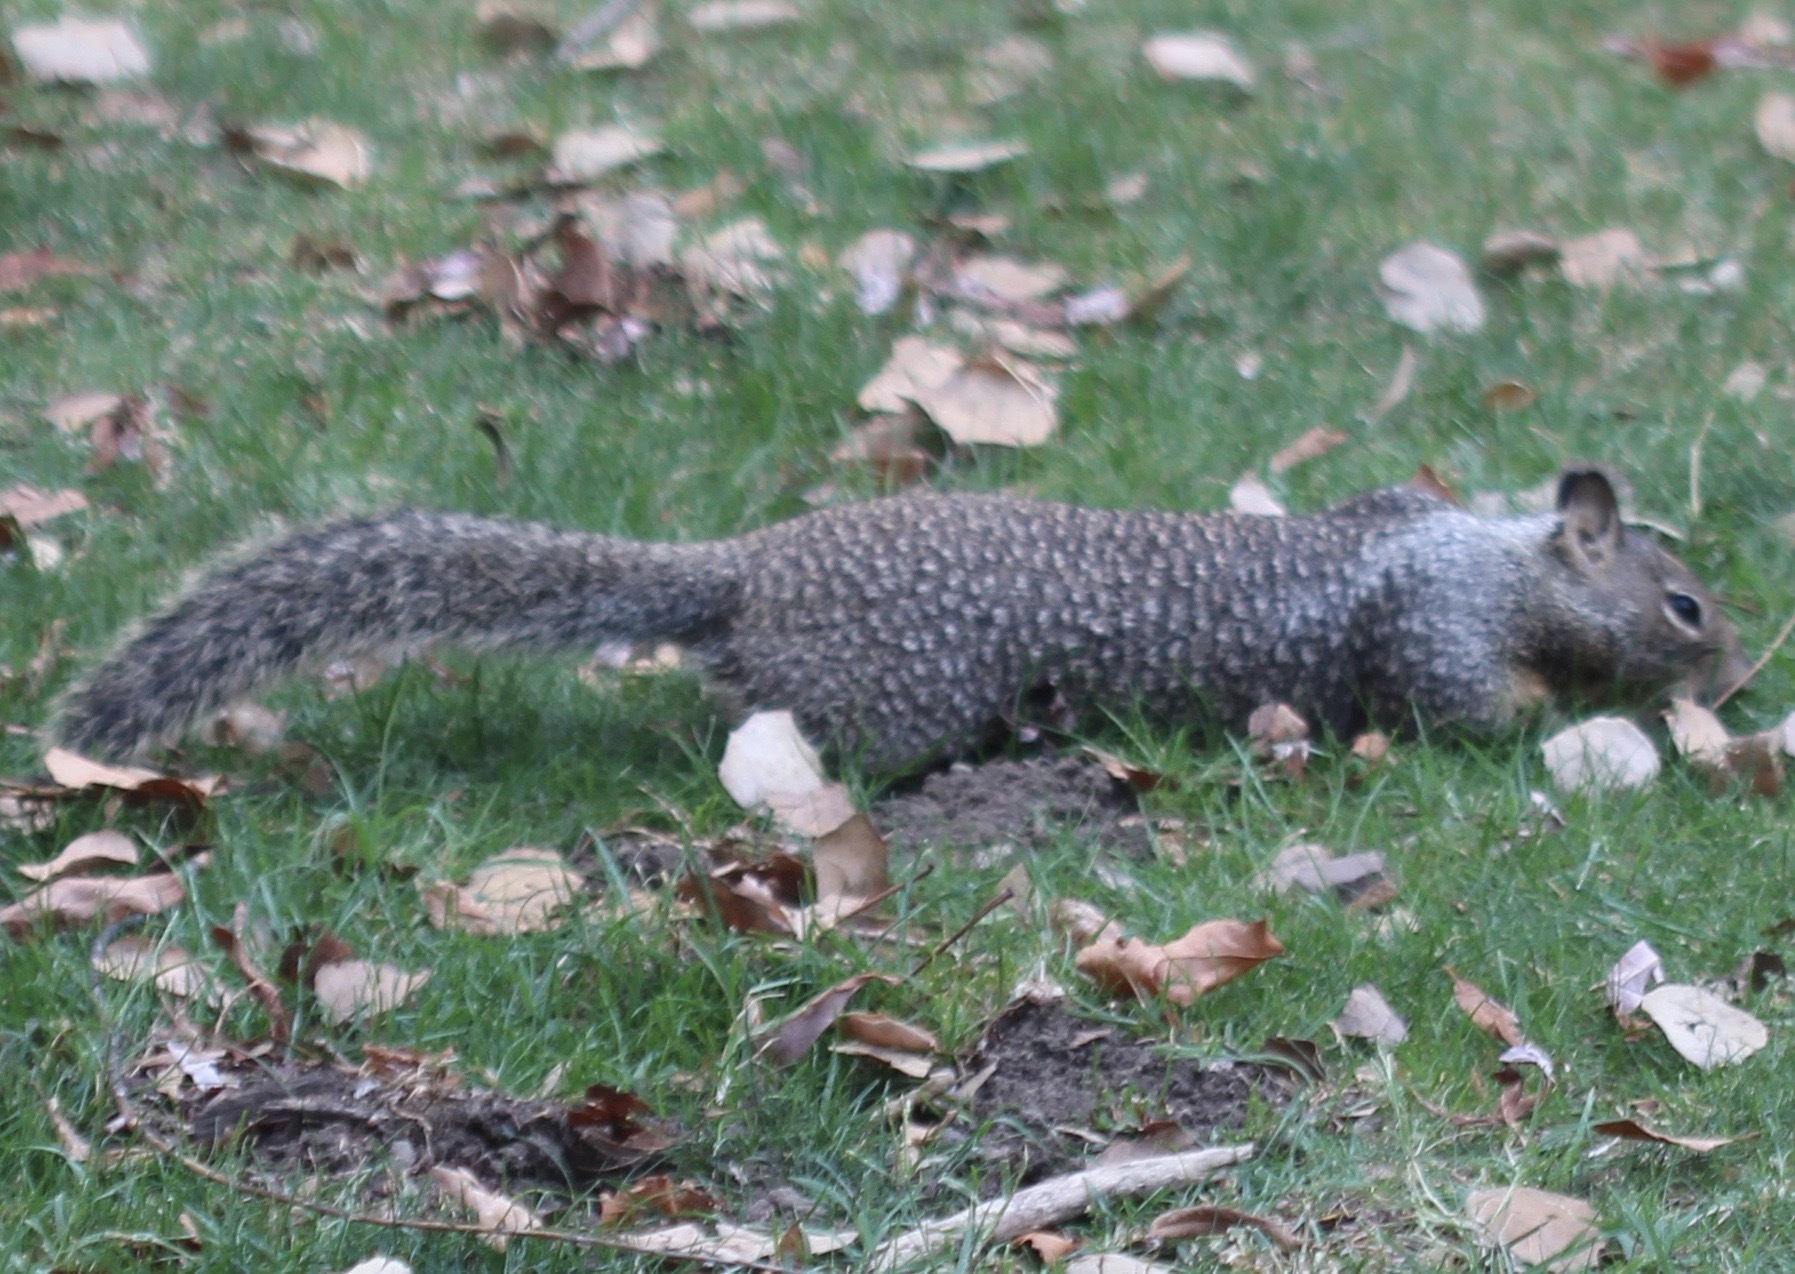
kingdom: Animalia
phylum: Chordata
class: Mammalia
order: Rodentia
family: Sciuridae
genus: Otospermophilus
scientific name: Otospermophilus beecheyi
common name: California ground squirrel
